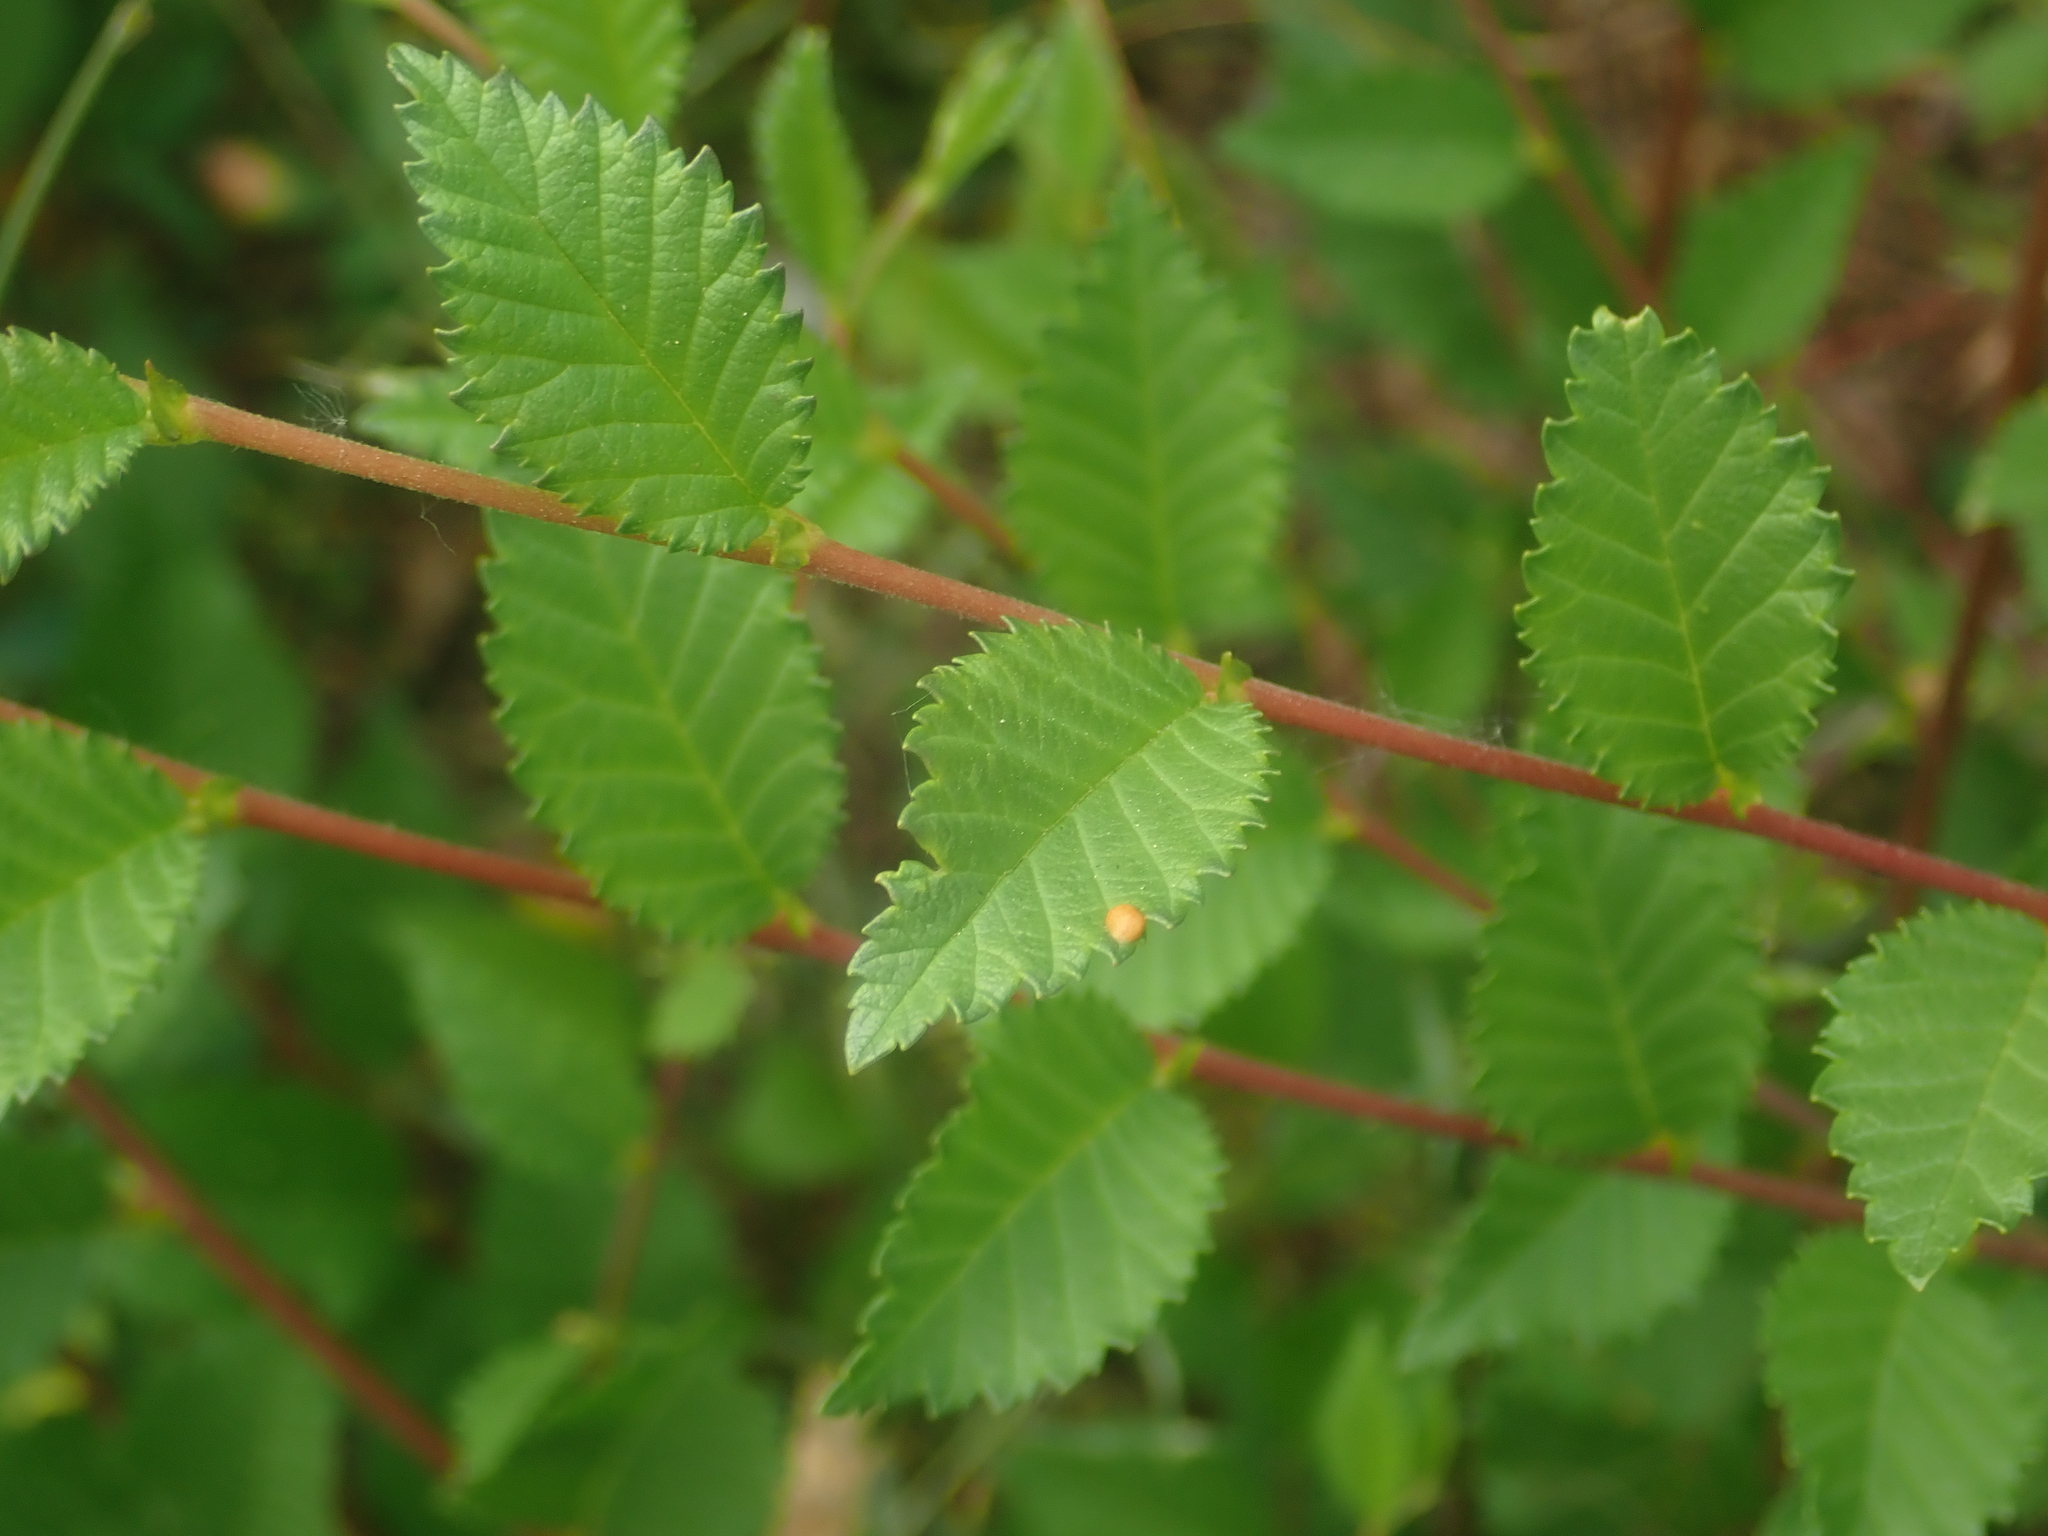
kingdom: Plantae
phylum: Tracheophyta
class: Magnoliopsida
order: Rosales
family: Ulmaceae
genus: Ulmus
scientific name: Ulmus minor
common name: Small-leaved elm
